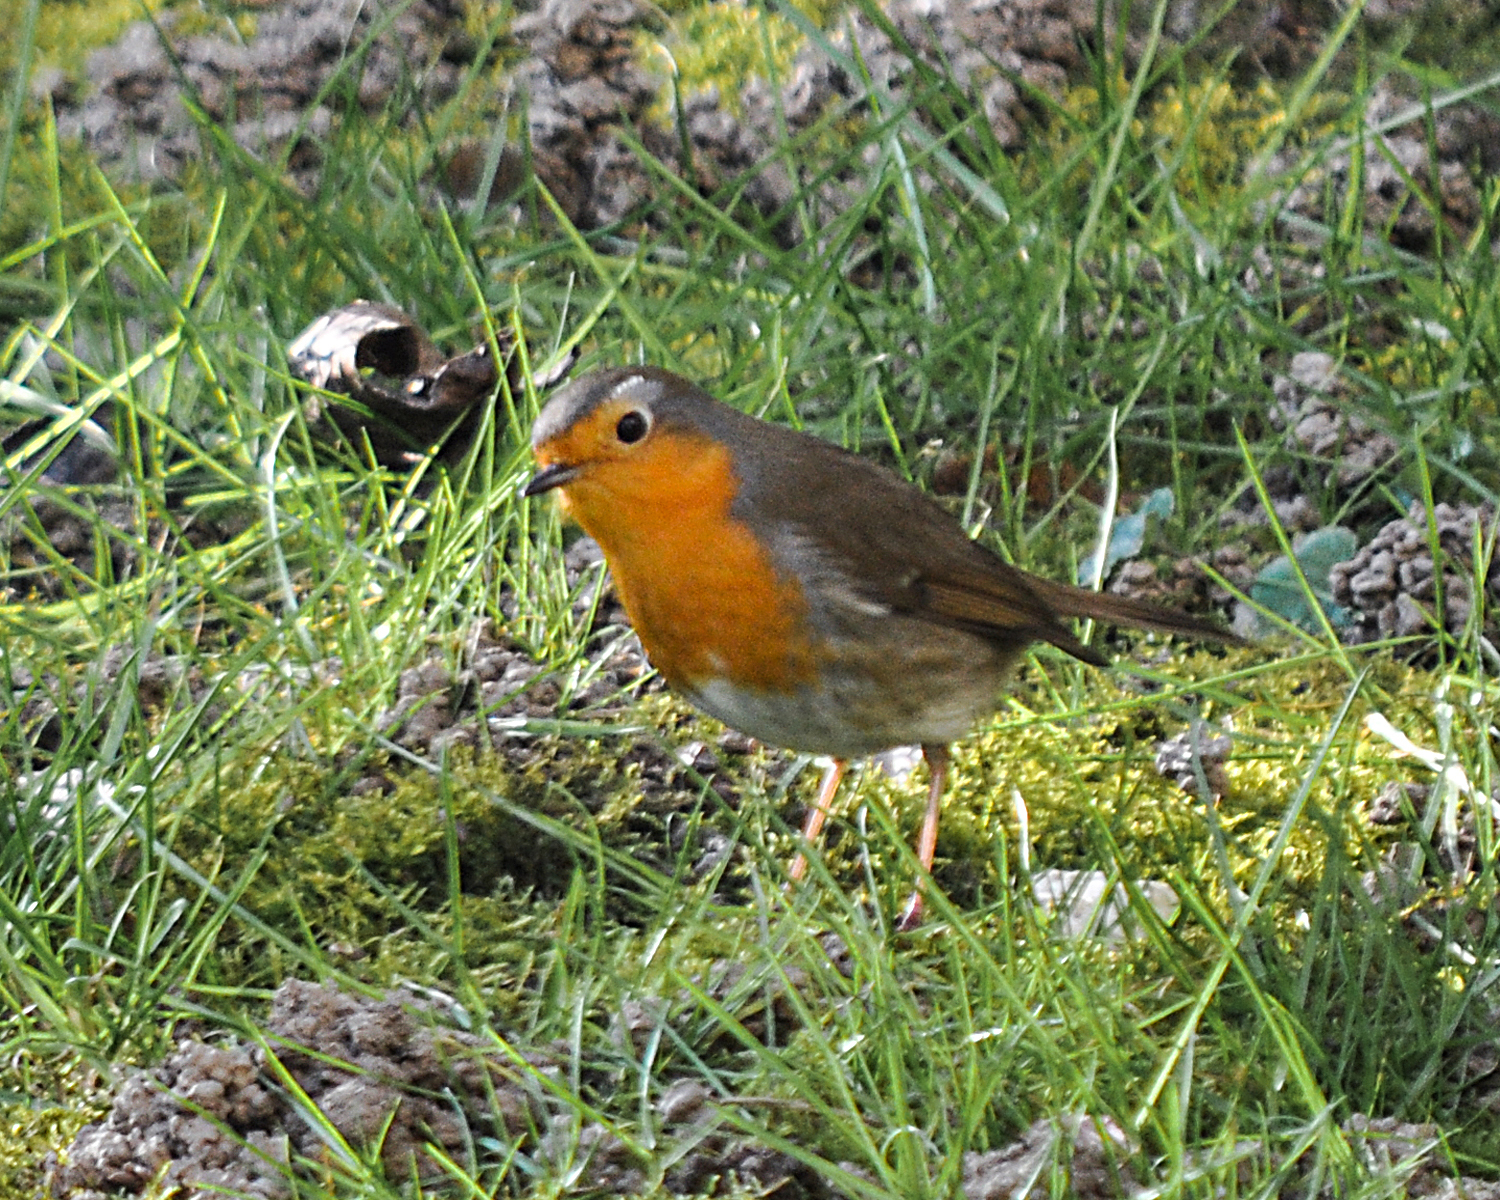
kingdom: Animalia
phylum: Chordata
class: Aves
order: Passeriformes
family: Muscicapidae
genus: Erithacus
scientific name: Erithacus rubecula
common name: European robin
